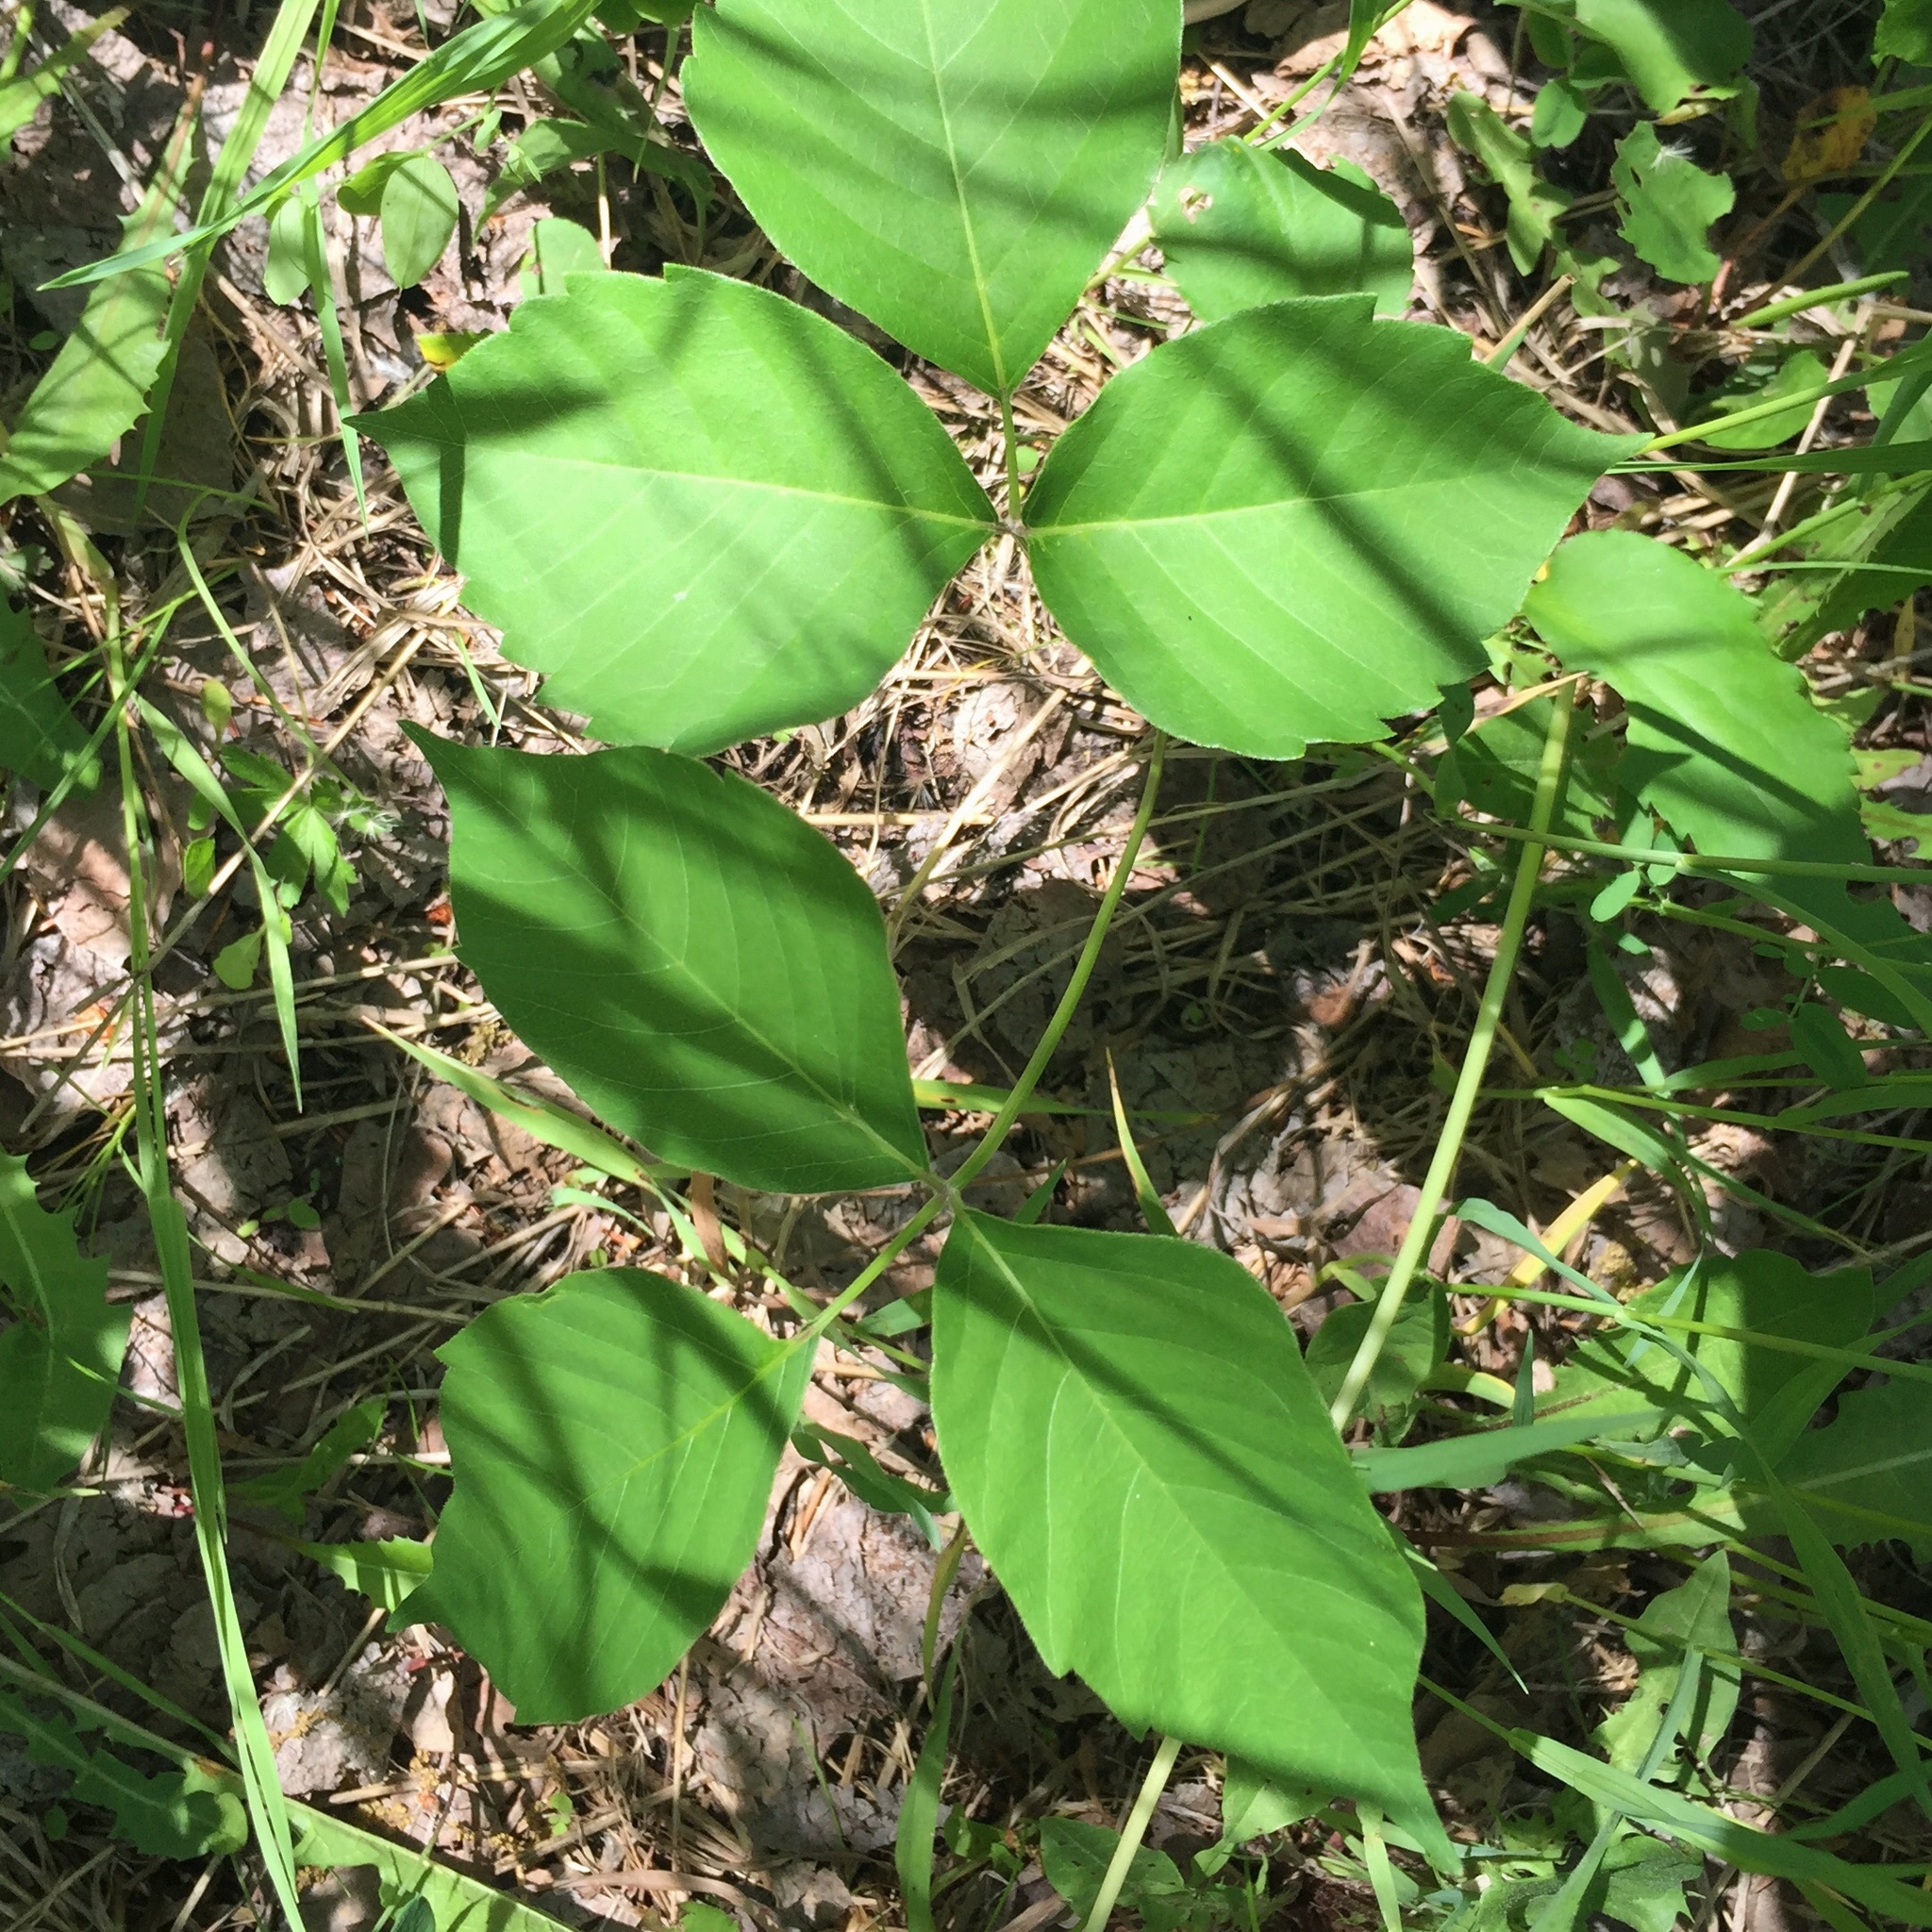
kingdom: Plantae
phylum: Tracheophyta
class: Magnoliopsida
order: Sapindales
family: Anacardiaceae
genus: Toxicodendron
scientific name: Toxicodendron rydbergii
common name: Rydberg's poison-ivy
